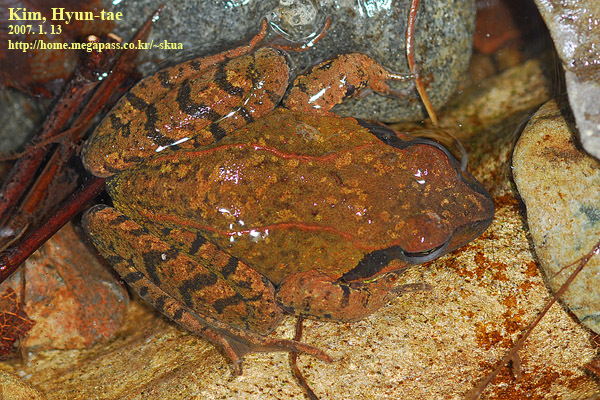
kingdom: Animalia
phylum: Chordata
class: Amphibia
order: Anura
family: Ranidae
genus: Rana
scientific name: Rana huanrenensis
